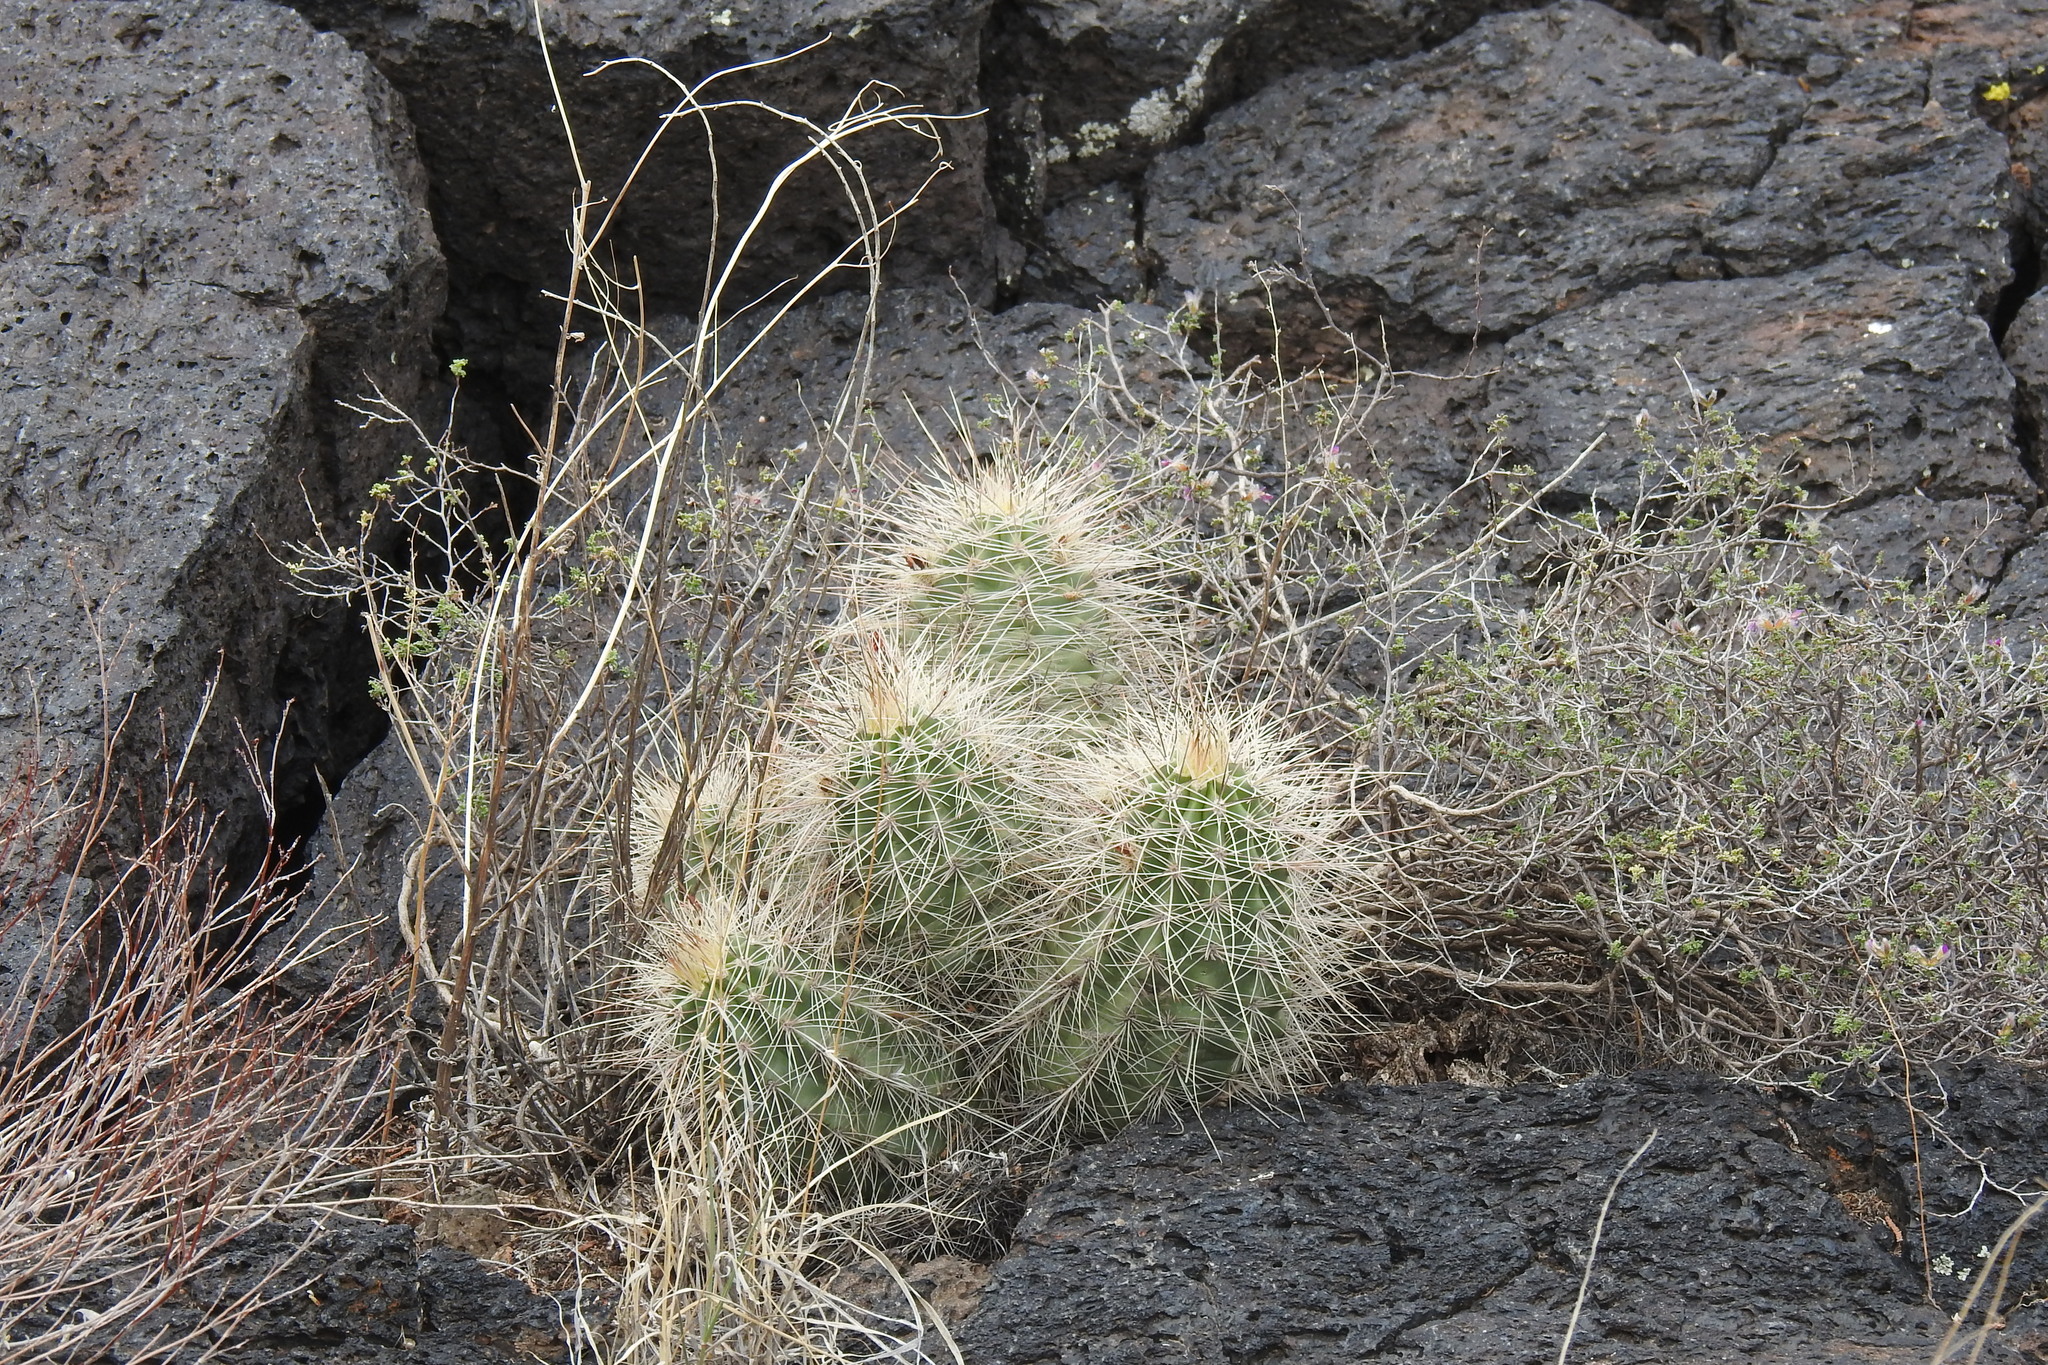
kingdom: Plantae
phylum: Tracheophyta
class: Magnoliopsida
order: Caryophyllales
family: Cactaceae
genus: Echinocereus
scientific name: Echinocereus coccineus
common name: Scarlet hedgehog cactus
